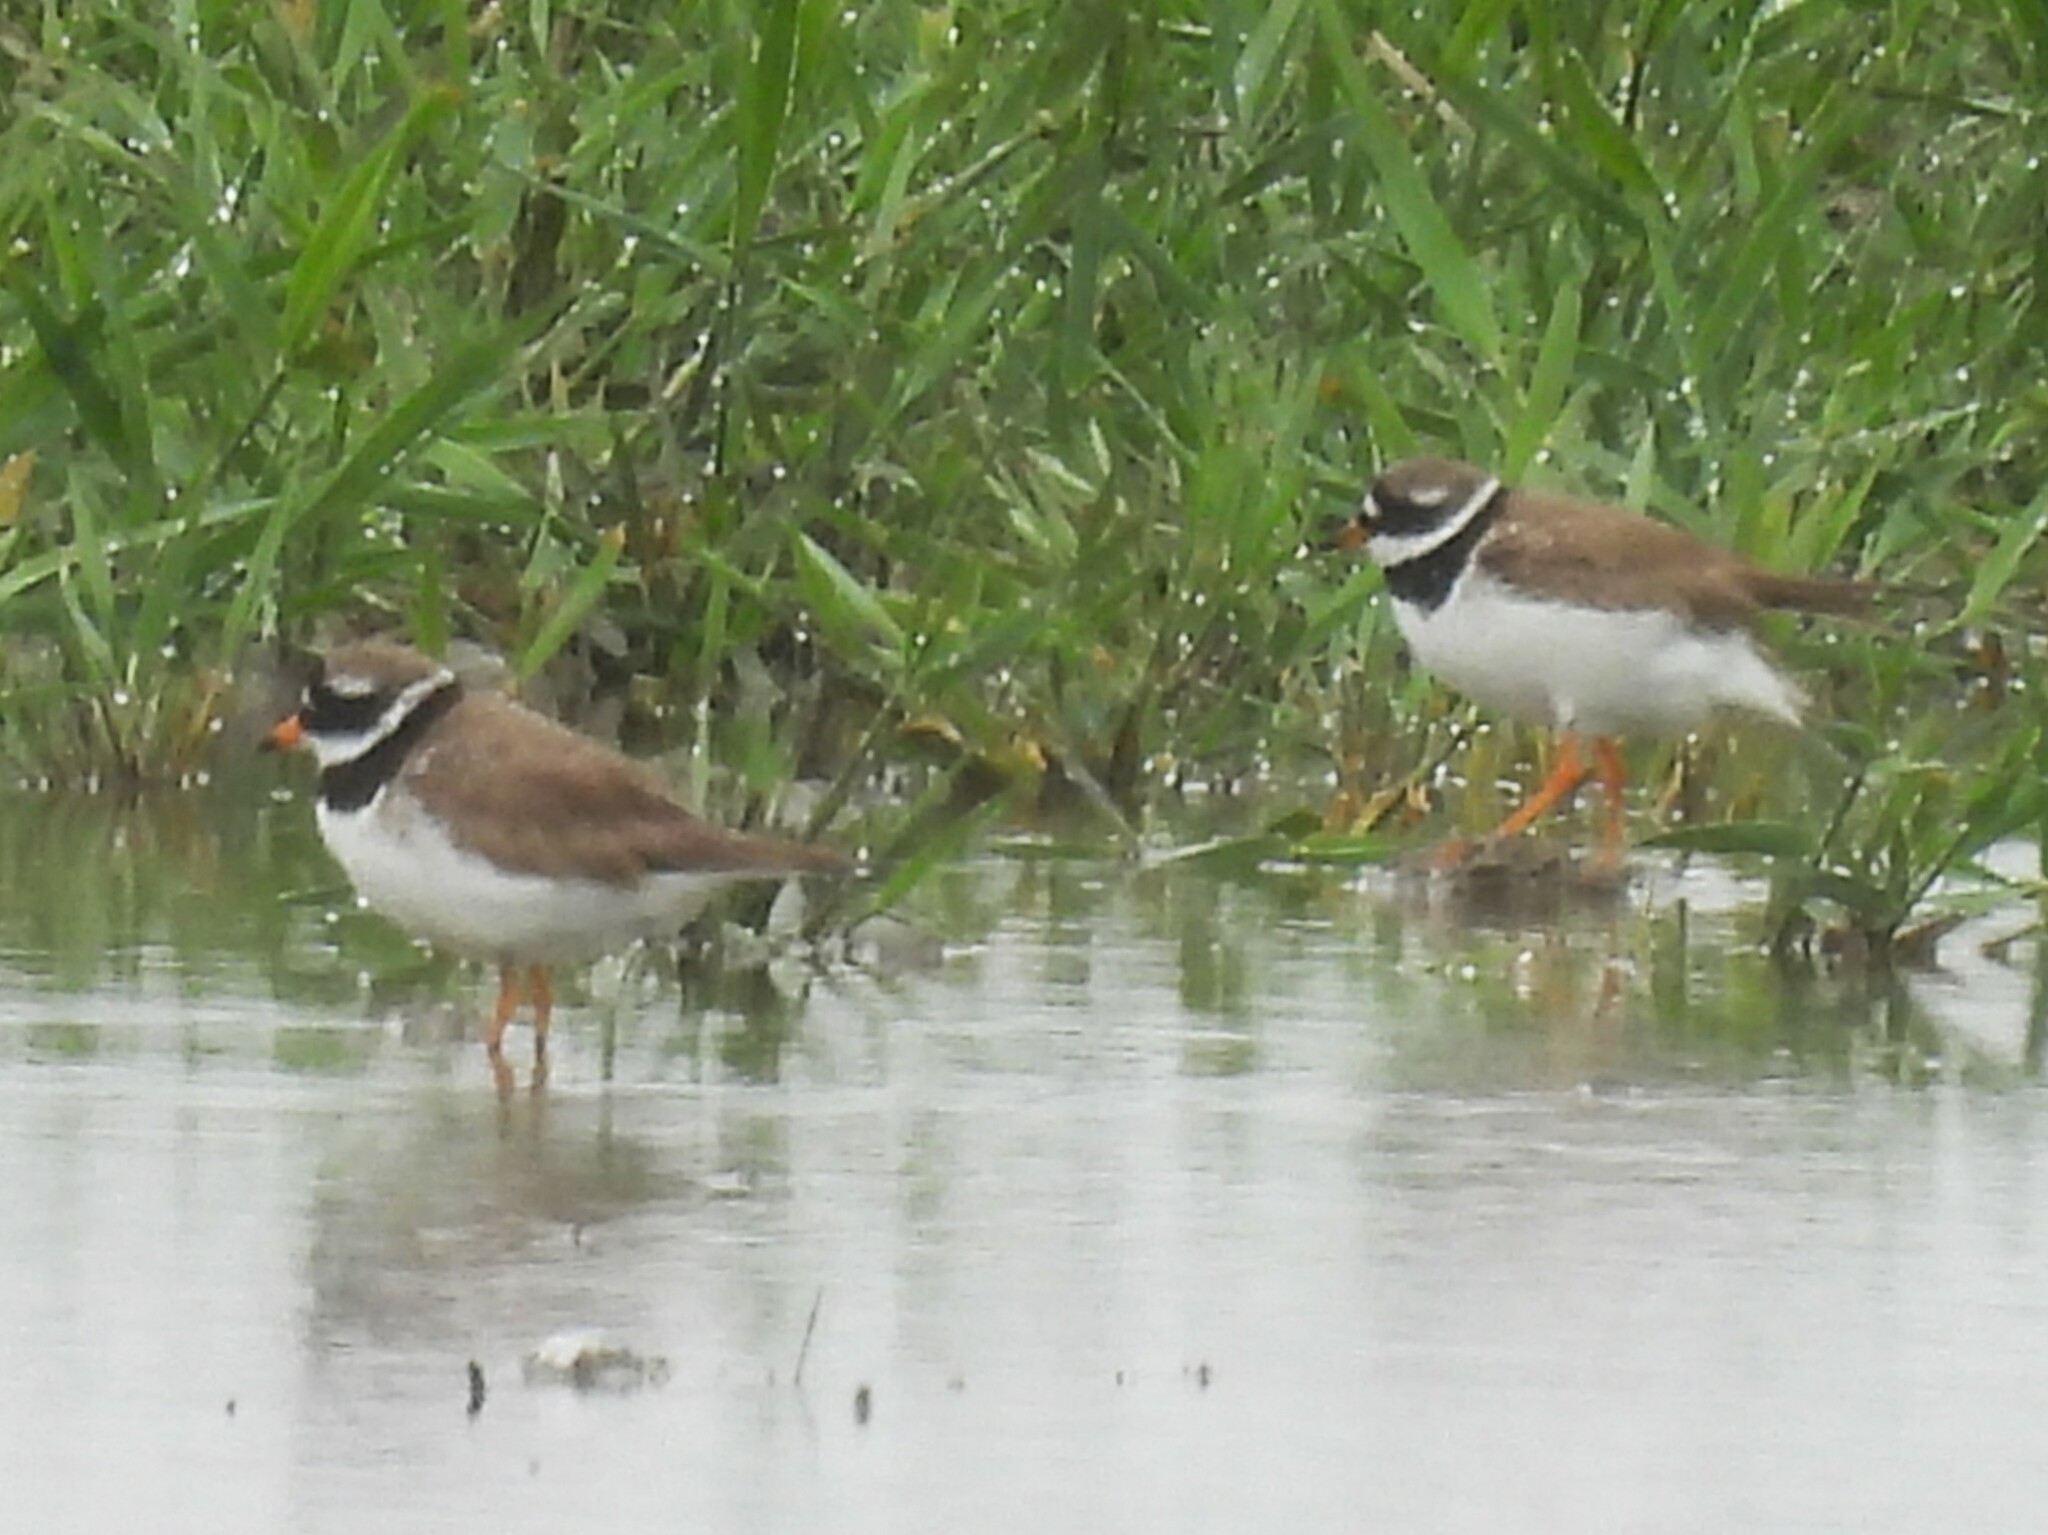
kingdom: Animalia
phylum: Chordata
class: Aves
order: Charadriiformes
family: Charadriidae
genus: Charadrius
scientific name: Charadrius hiaticula
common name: Common ringed plover
